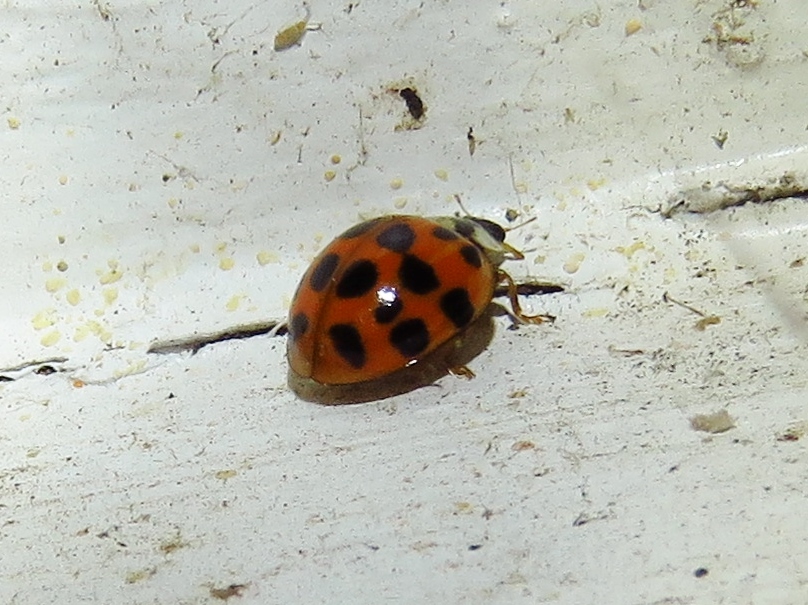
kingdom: Animalia
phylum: Arthropoda
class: Insecta
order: Coleoptera
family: Coccinellidae
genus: Harmonia
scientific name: Harmonia axyridis
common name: Harlequin ladybird
